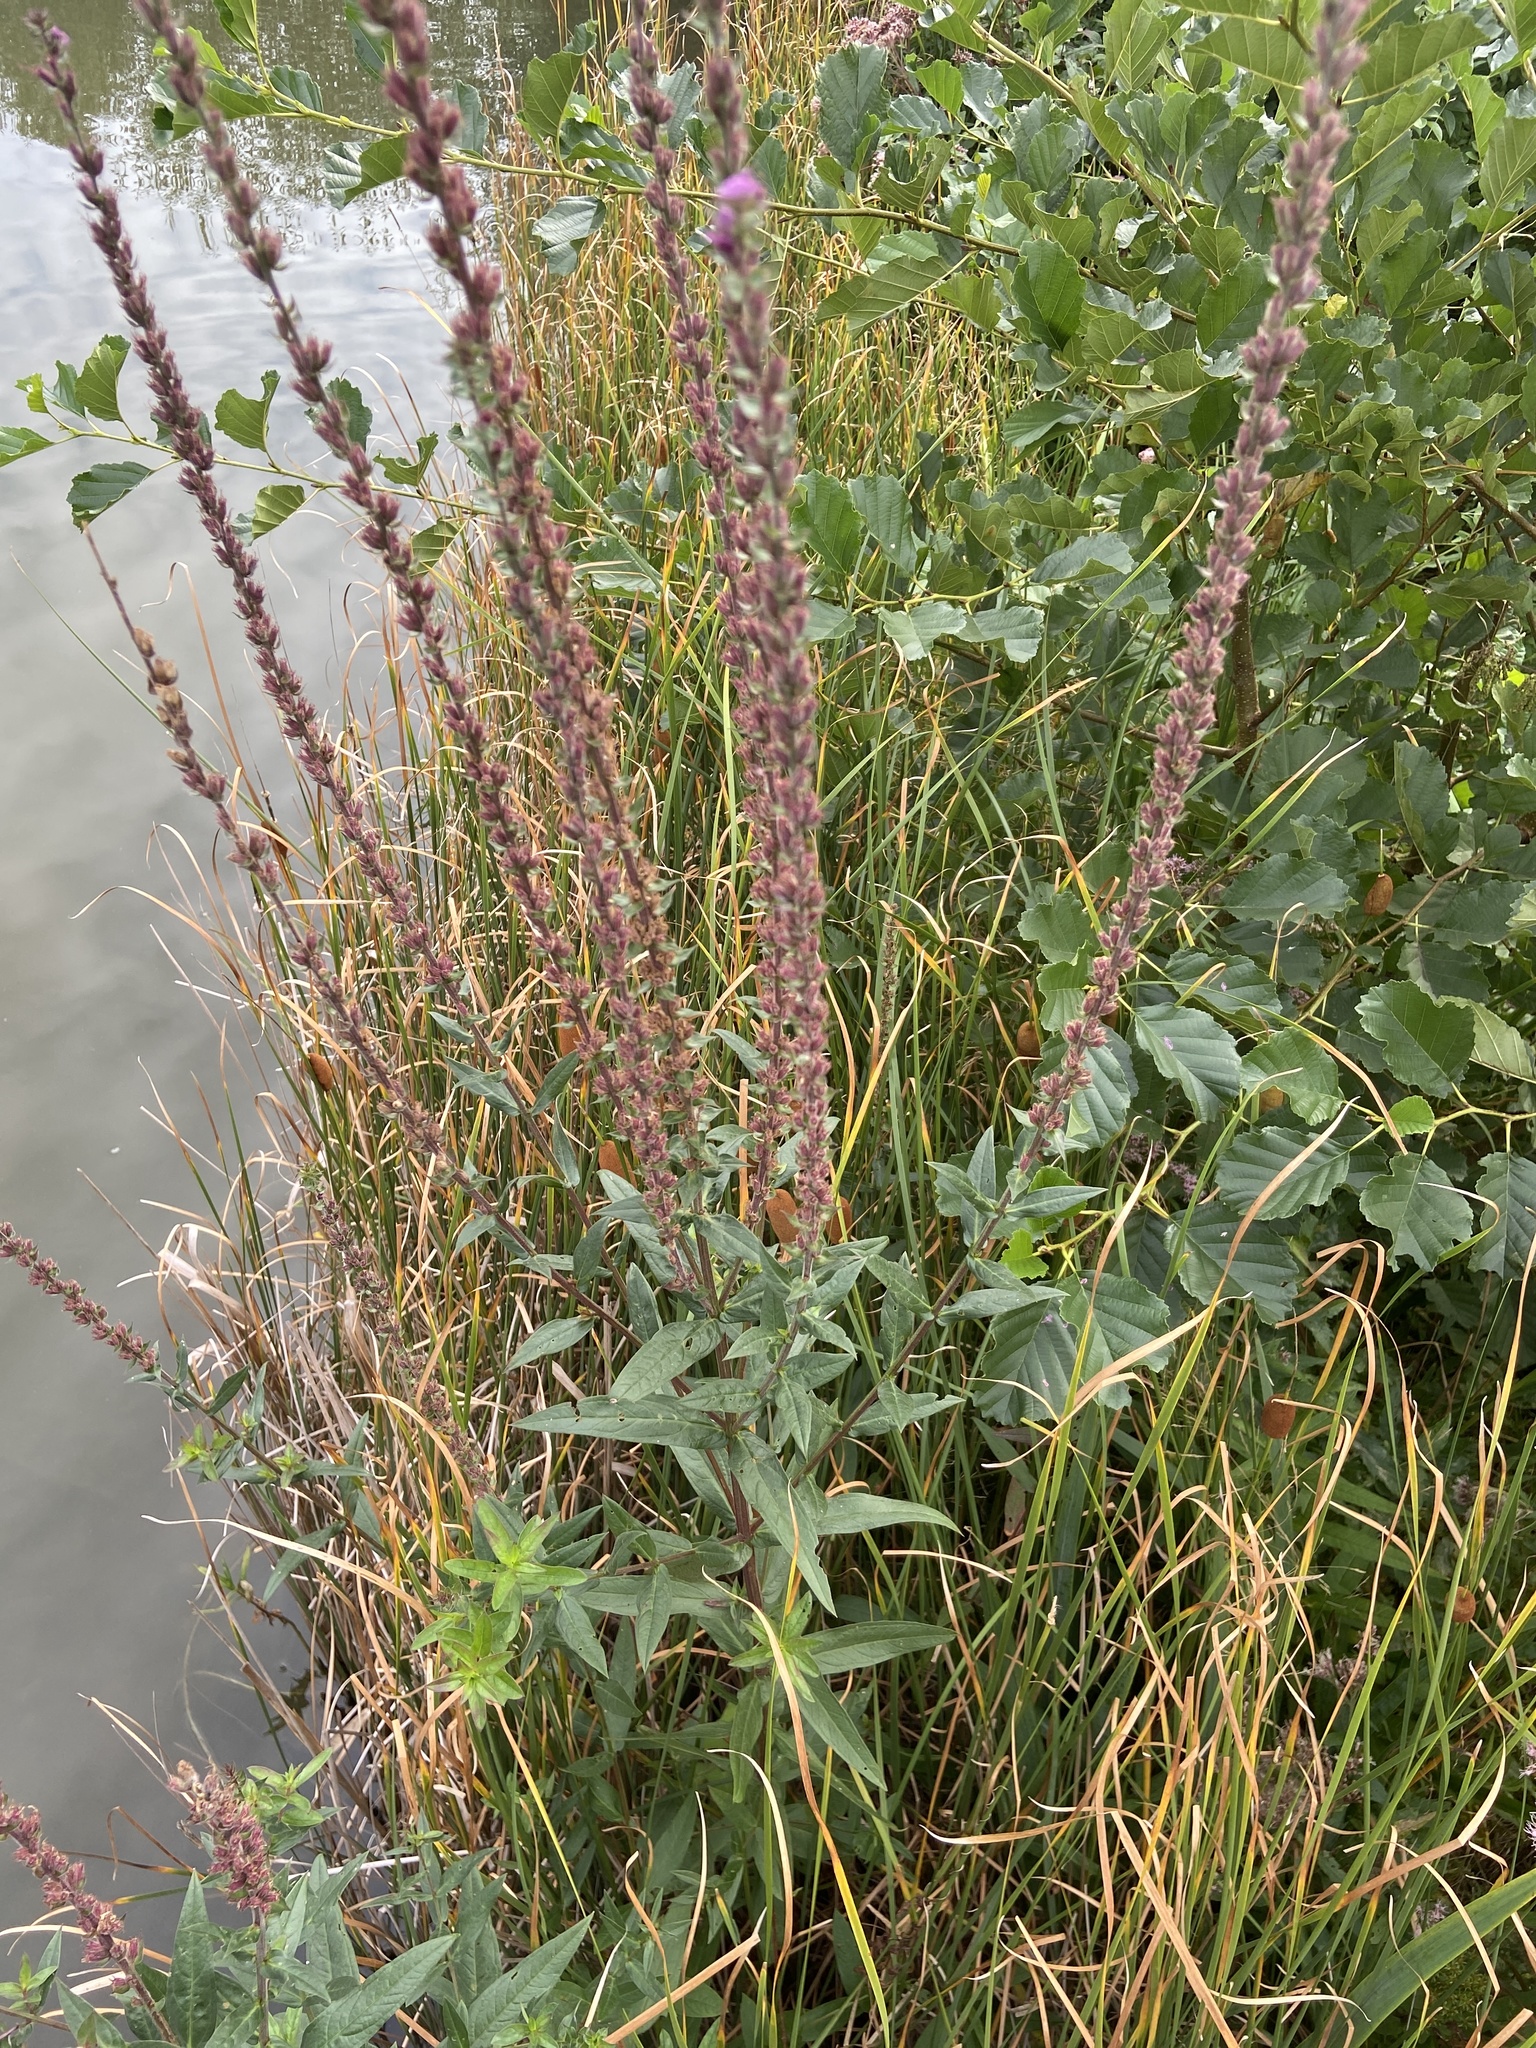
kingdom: Plantae
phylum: Tracheophyta
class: Magnoliopsida
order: Myrtales
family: Lythraceae
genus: Lythrum
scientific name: Lythrum salicaria
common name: Purple loosestrife
